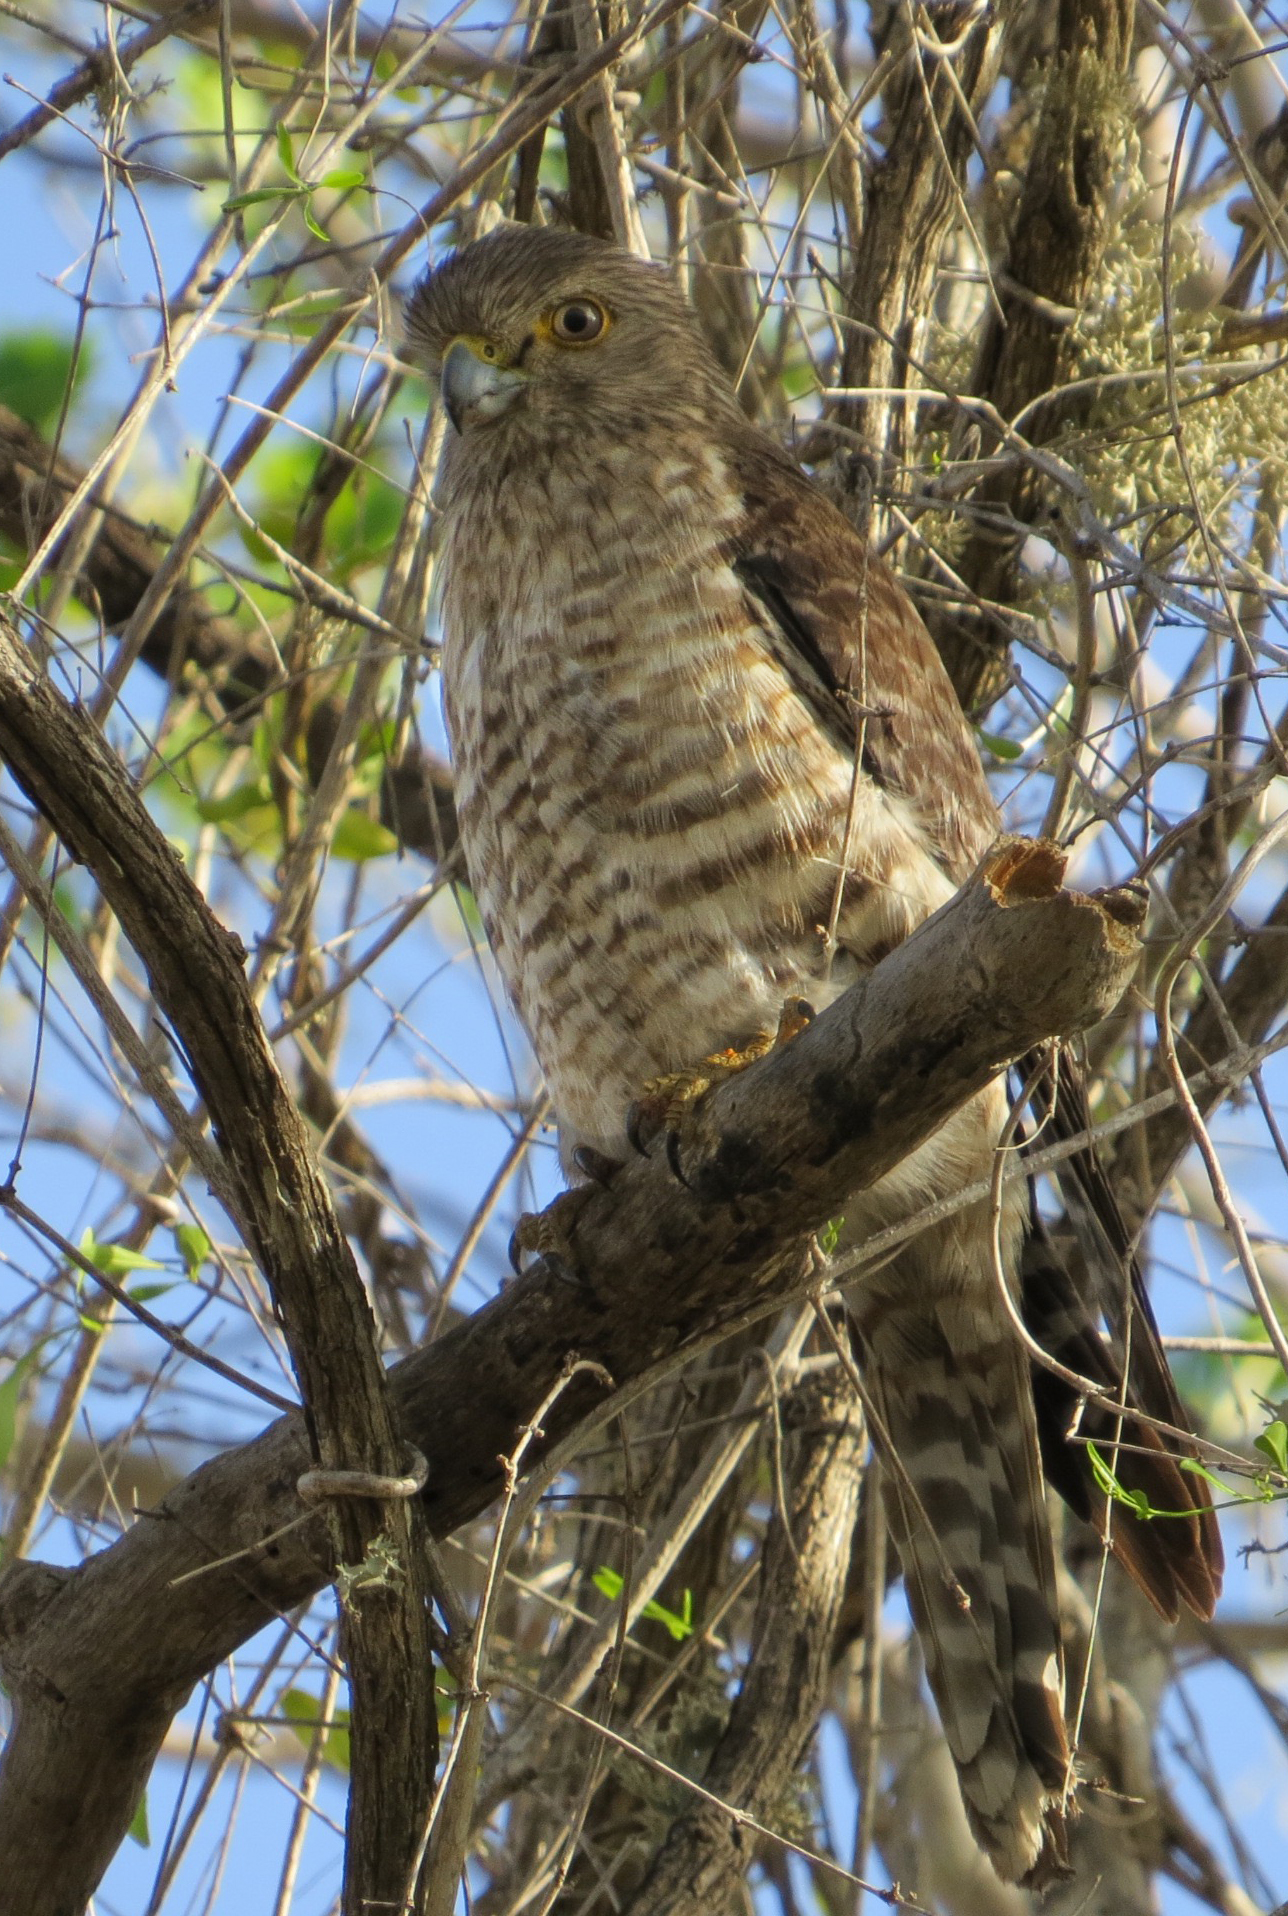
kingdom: Animalia
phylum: Chordata
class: Aves
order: Falconiformes
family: Falconidae
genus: Falco
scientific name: Falco zoniventris
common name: Banded kestrel
